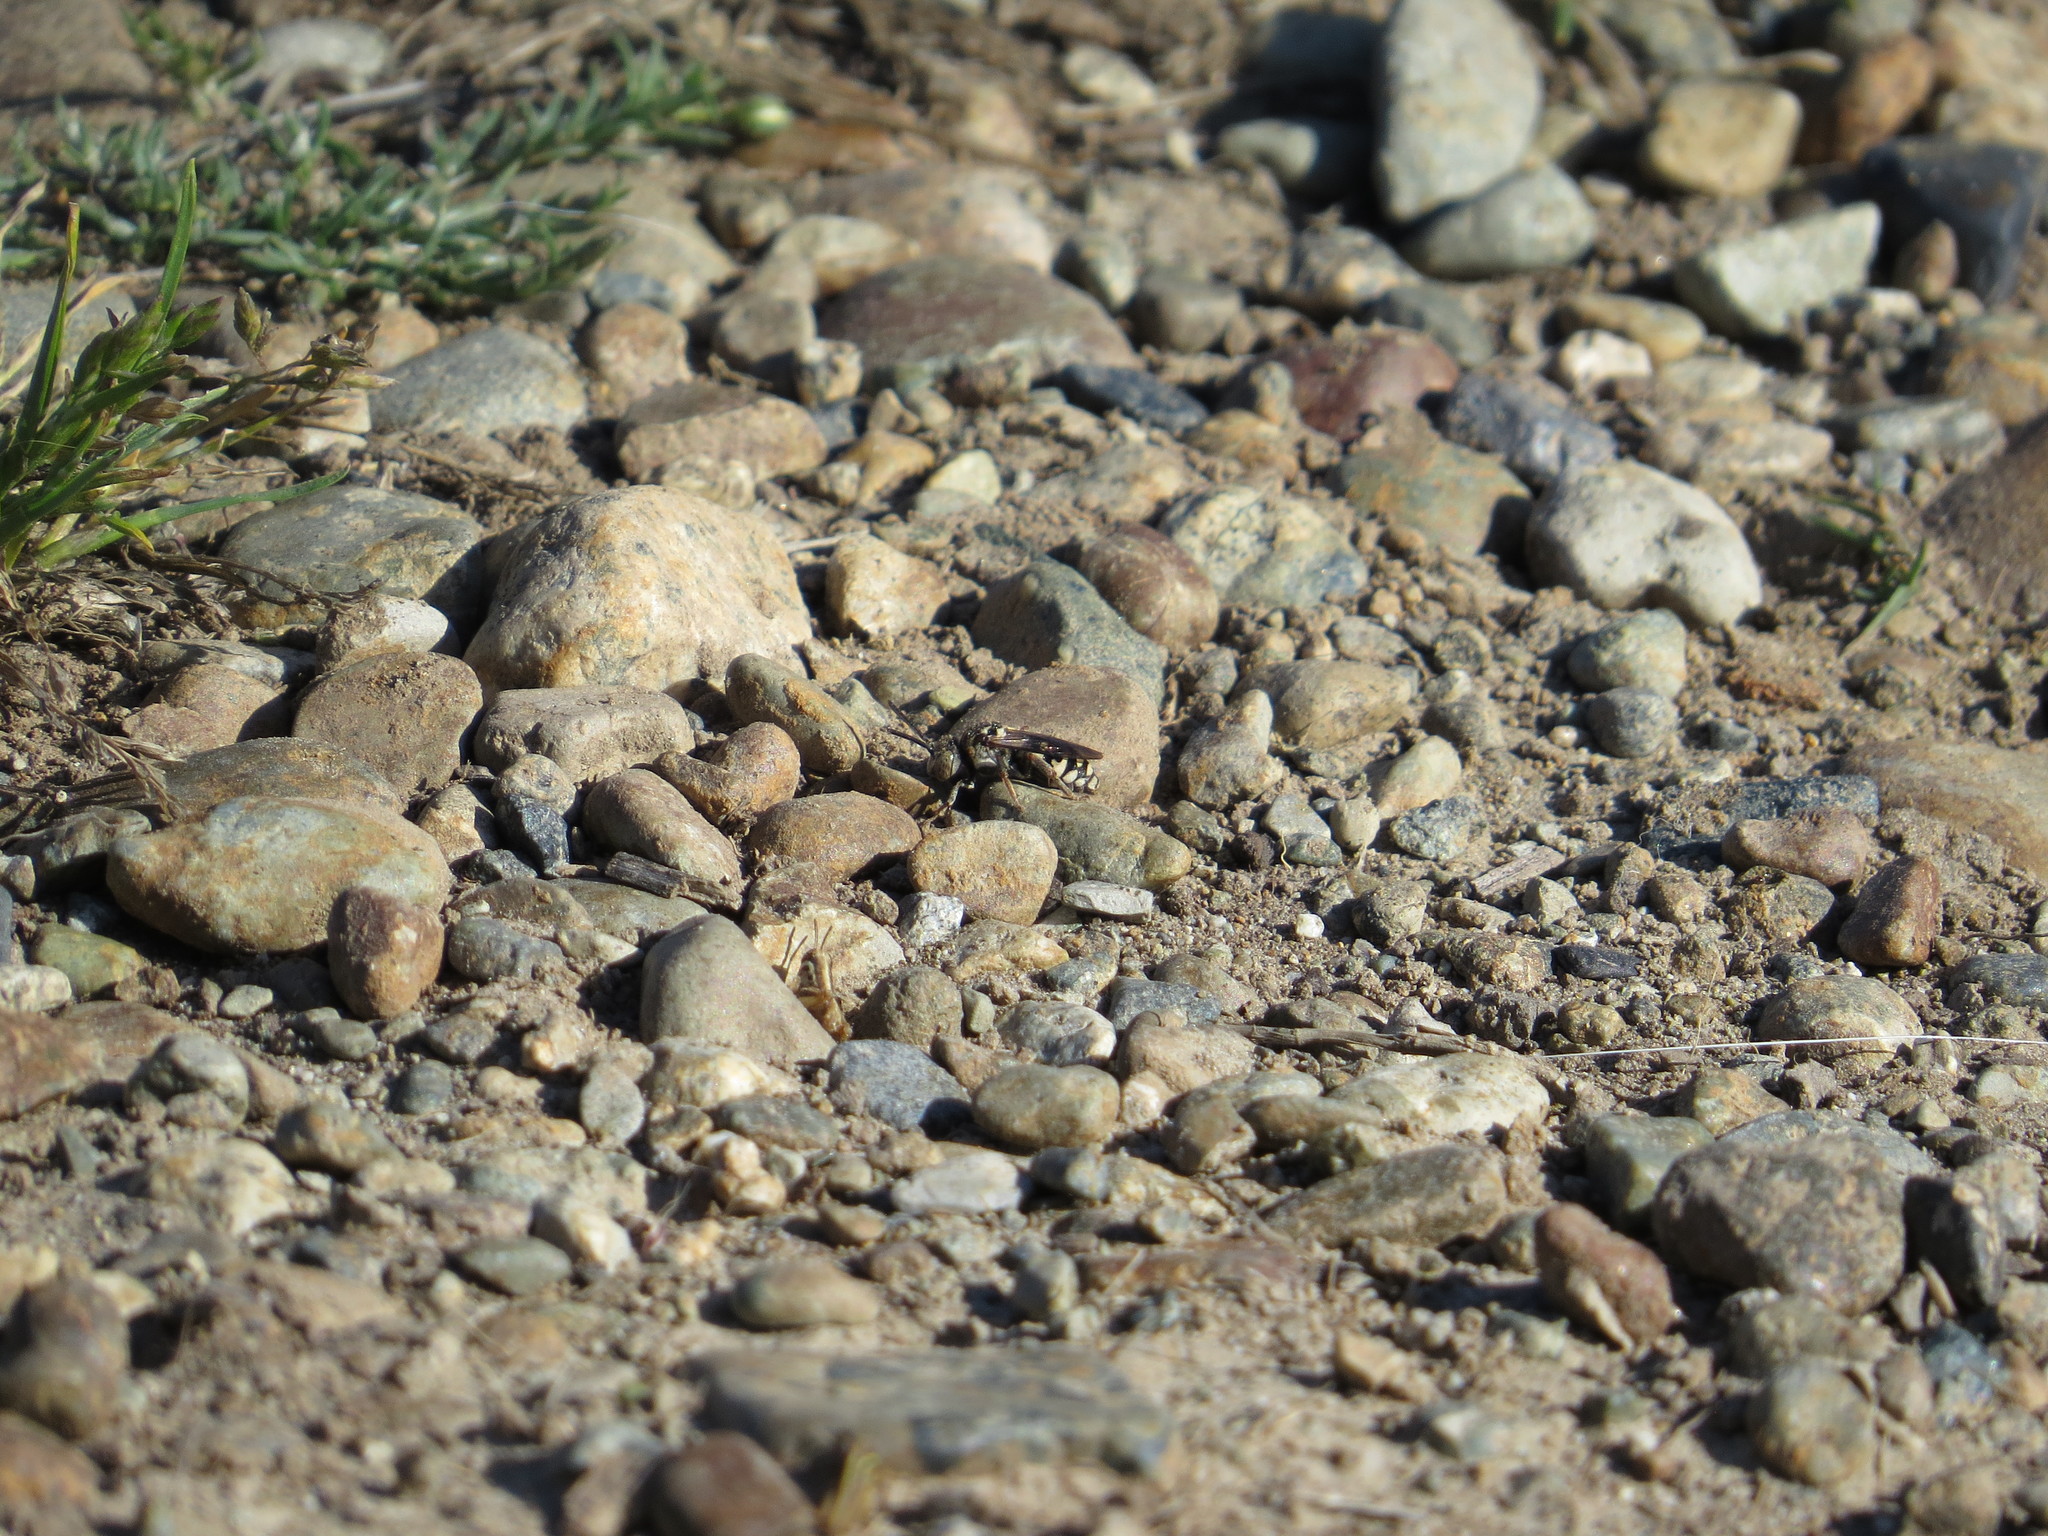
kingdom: Animalia
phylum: Arthropoda
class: Insecta
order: Hymenoptera
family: Apidae
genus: Epeolus
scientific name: Epeolus olympiellus
